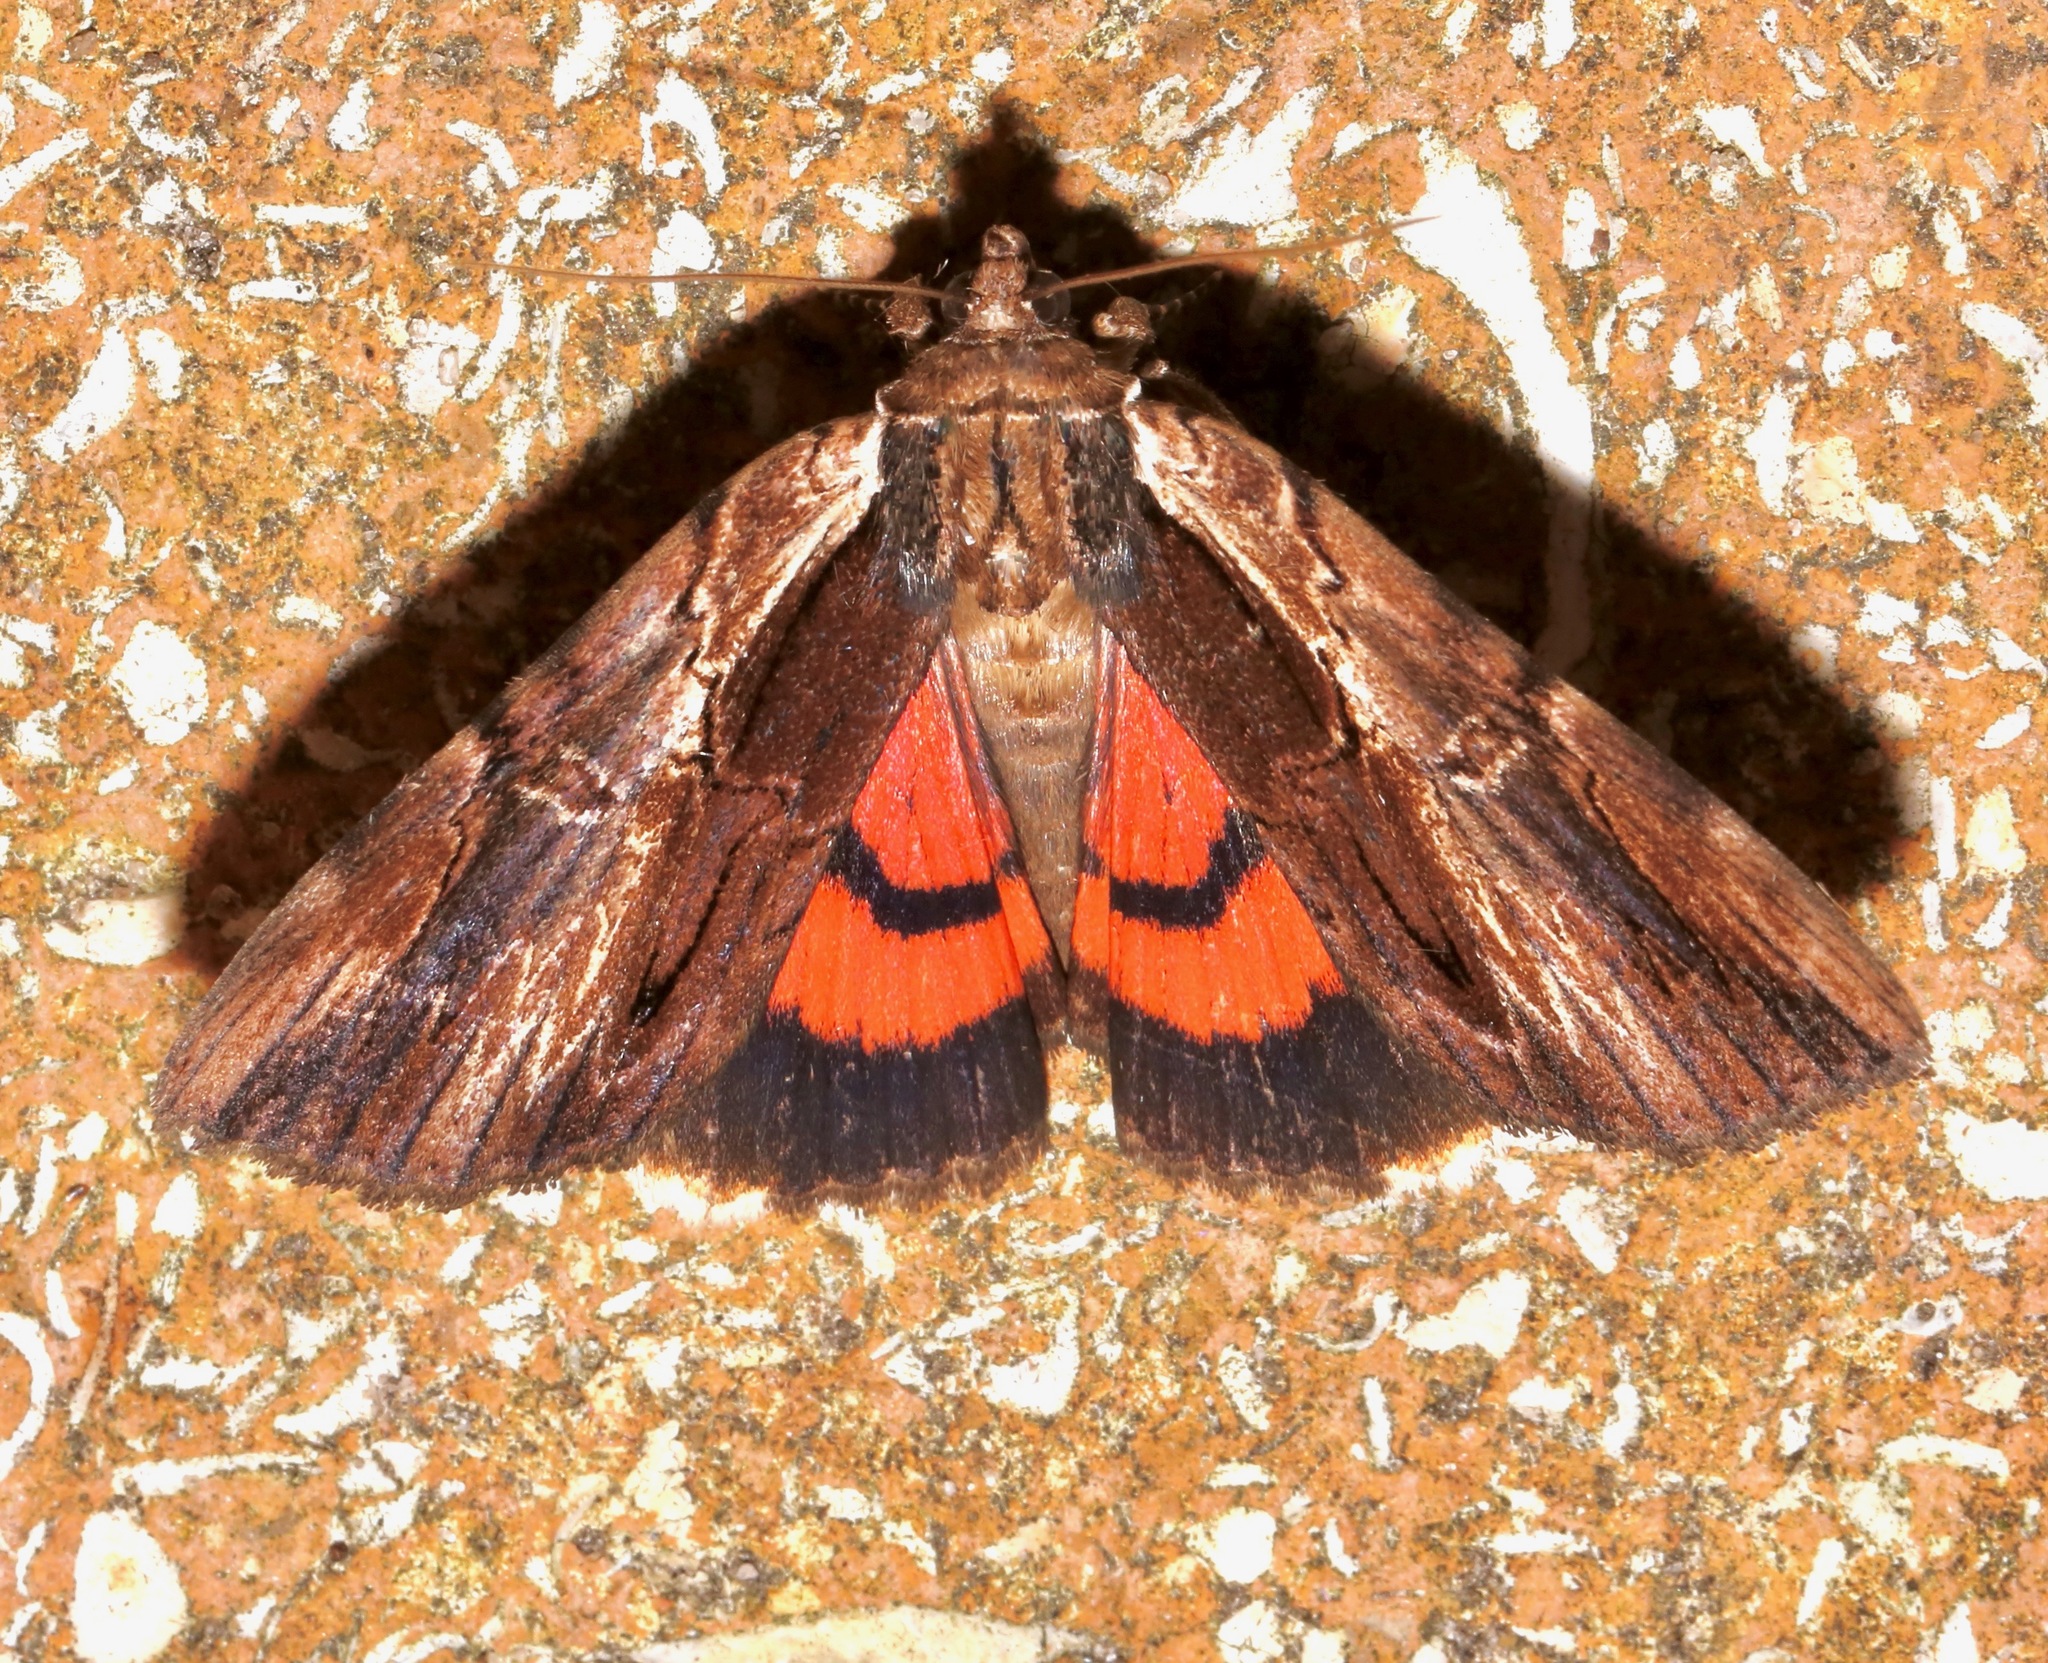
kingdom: Animalia
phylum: Arthropoda
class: Insecta
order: Lepidoptera
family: Erebidae
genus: Catocala
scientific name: Catocala ultronia
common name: Ultronia underwing
